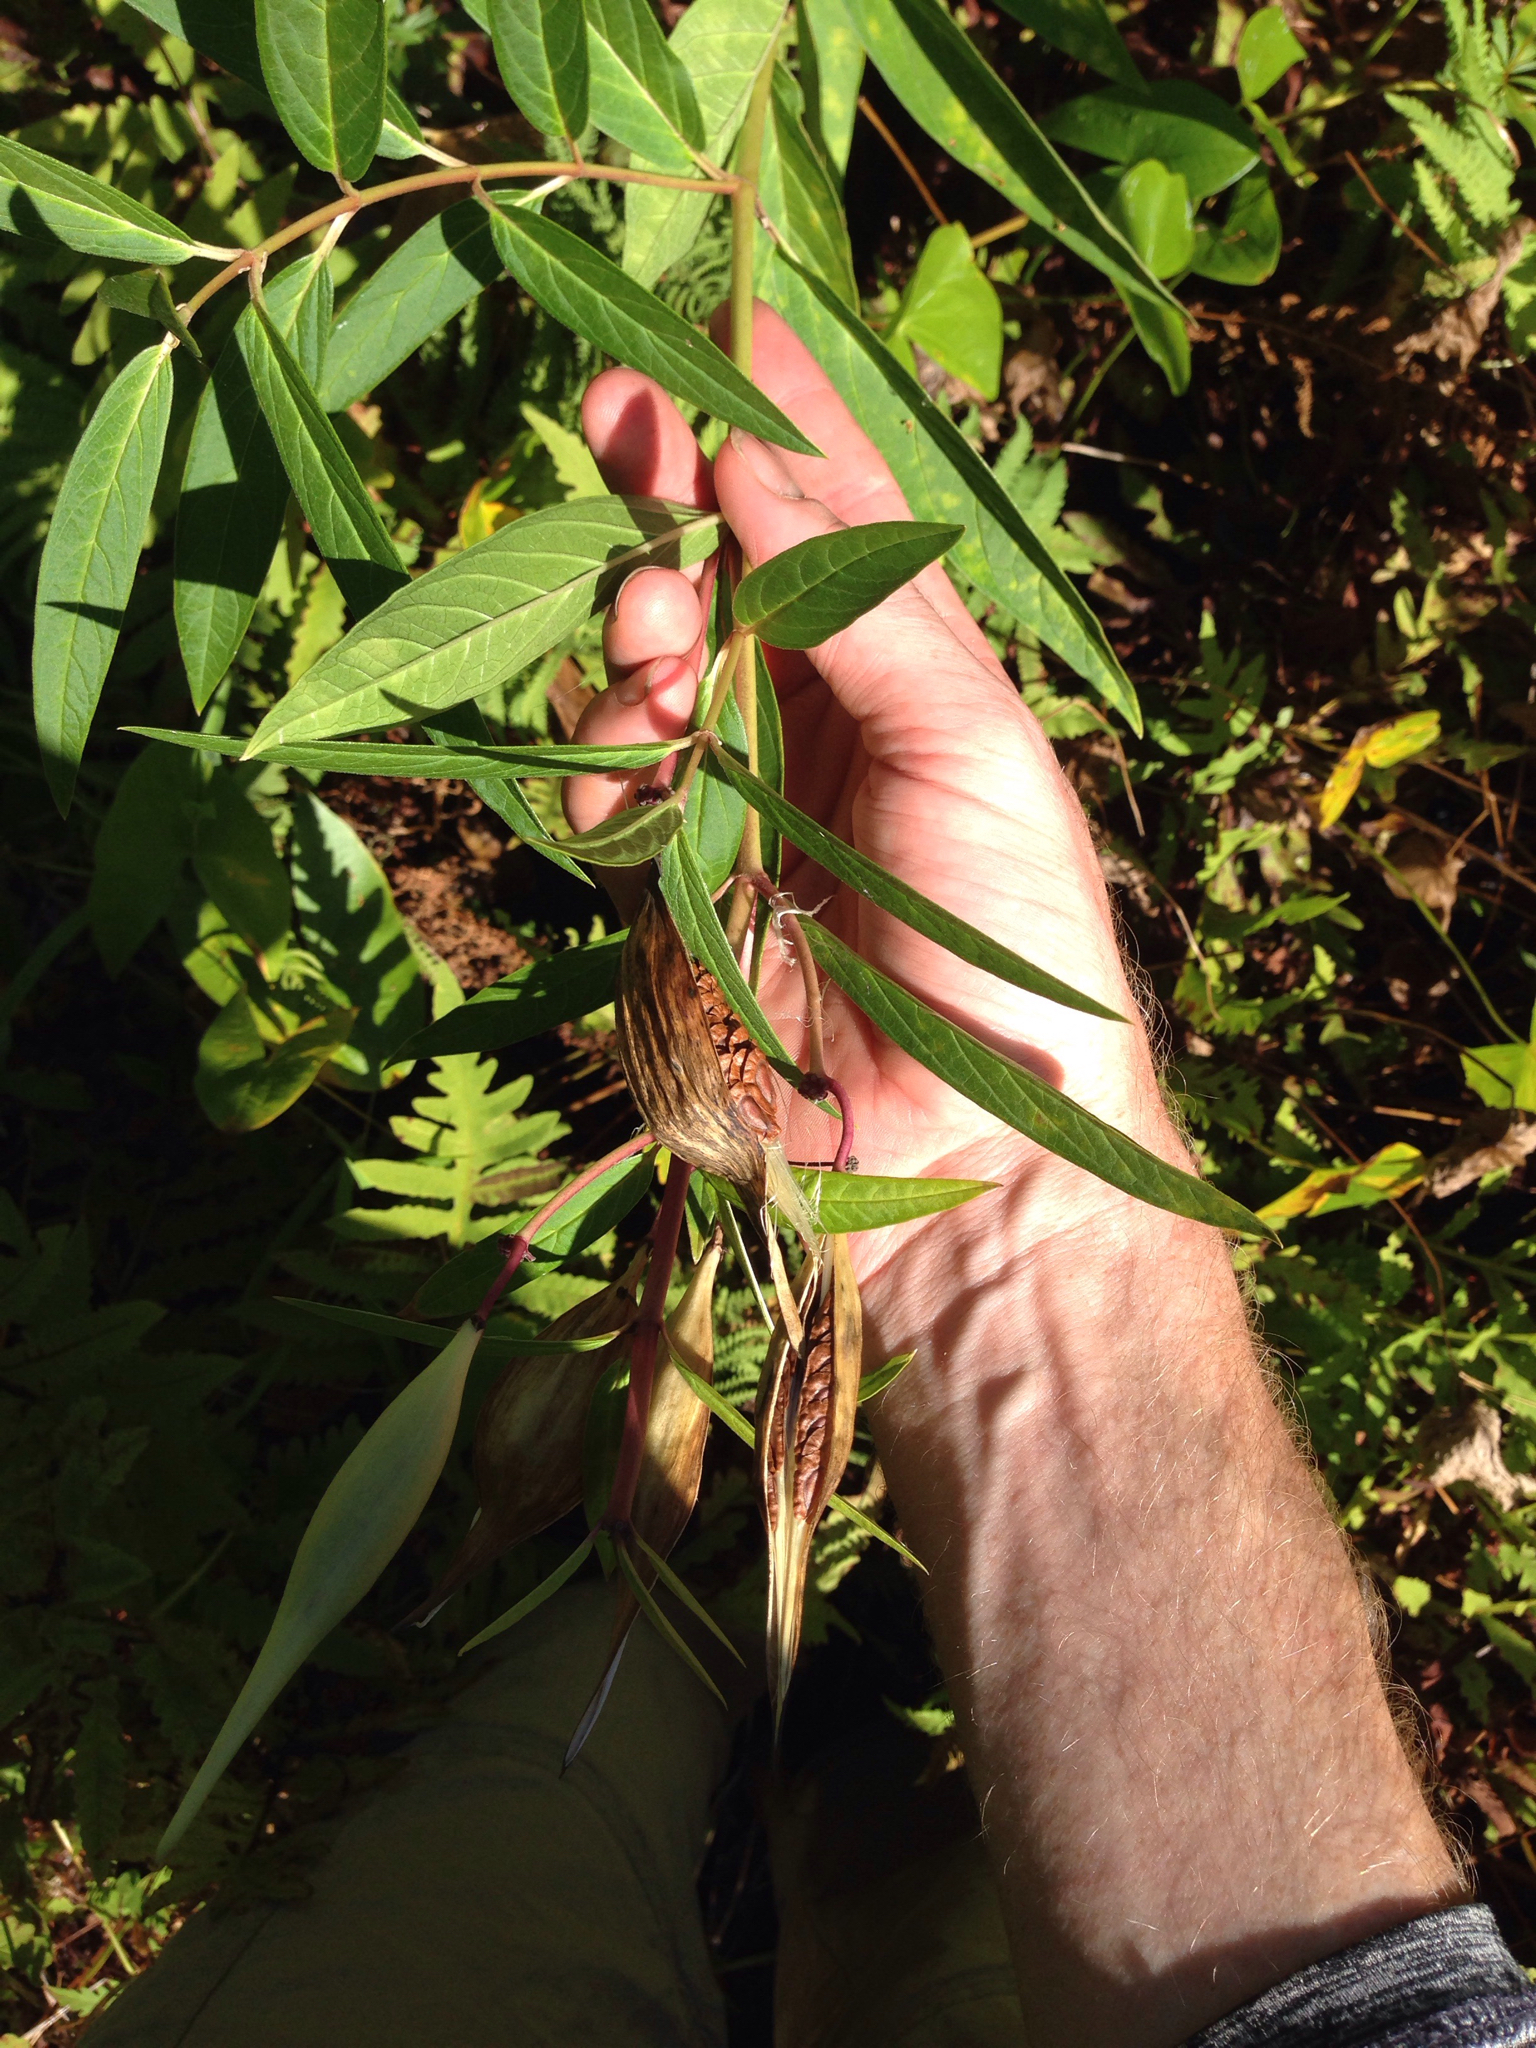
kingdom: Plantae
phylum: Tracheophyta
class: Magnoliopsida
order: Gentianales
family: Apocynaceae
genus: Asclepias
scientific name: Asclepias incarnata
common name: Swamp milkweed
